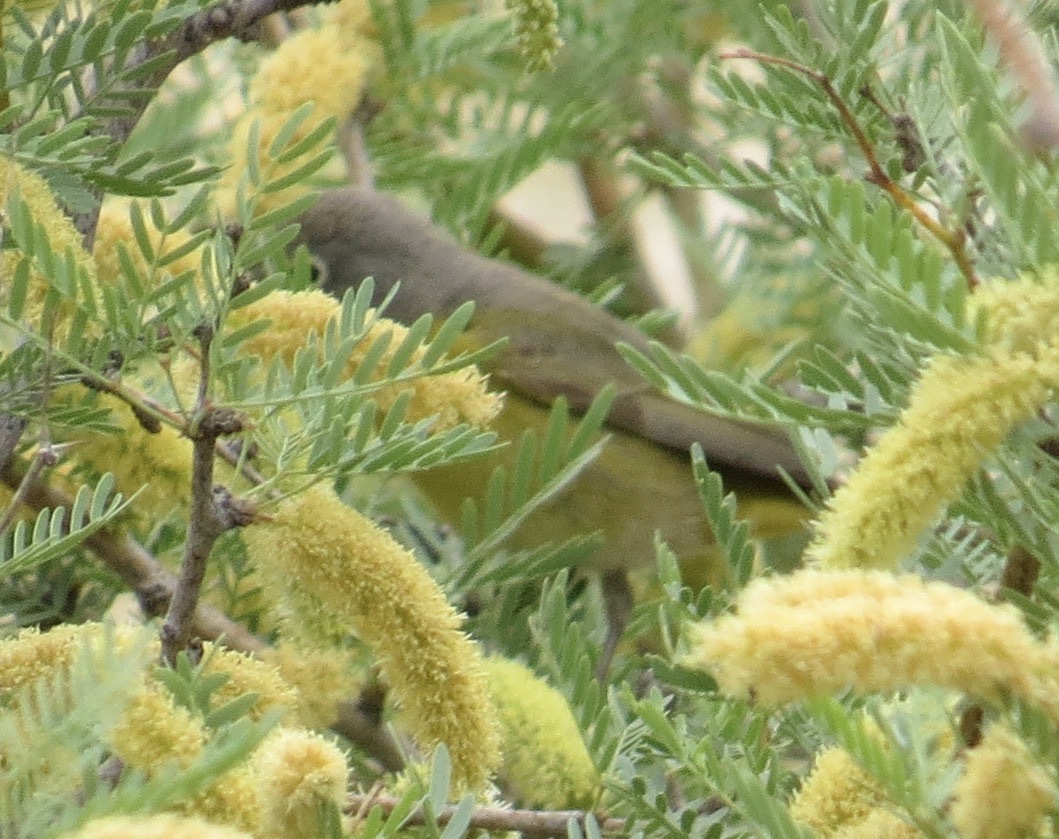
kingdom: Animalia
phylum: Chordata
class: Aves
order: Passeriformes
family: Parulidae
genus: Leiothlypis
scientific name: Leiothlypis ruficapilla
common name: Nashville warbler
